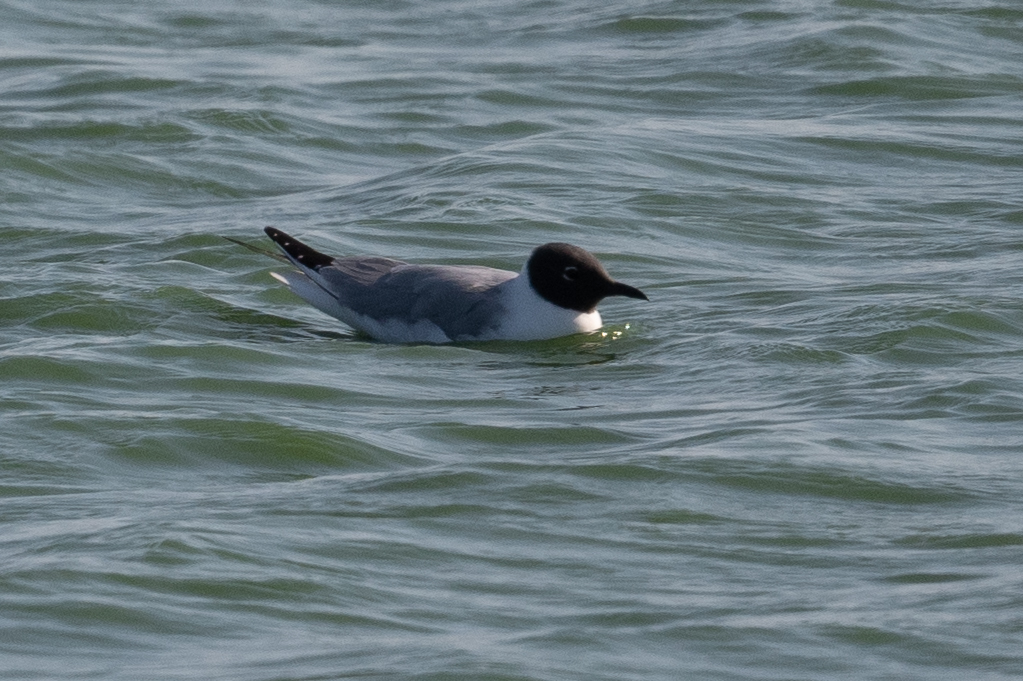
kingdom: Animalia
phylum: Chordata
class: Aves
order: Charadriiformes
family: Laridae
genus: Chroicocephalus
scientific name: Chroicocephalus philadelphia
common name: Bonaparte's gull
